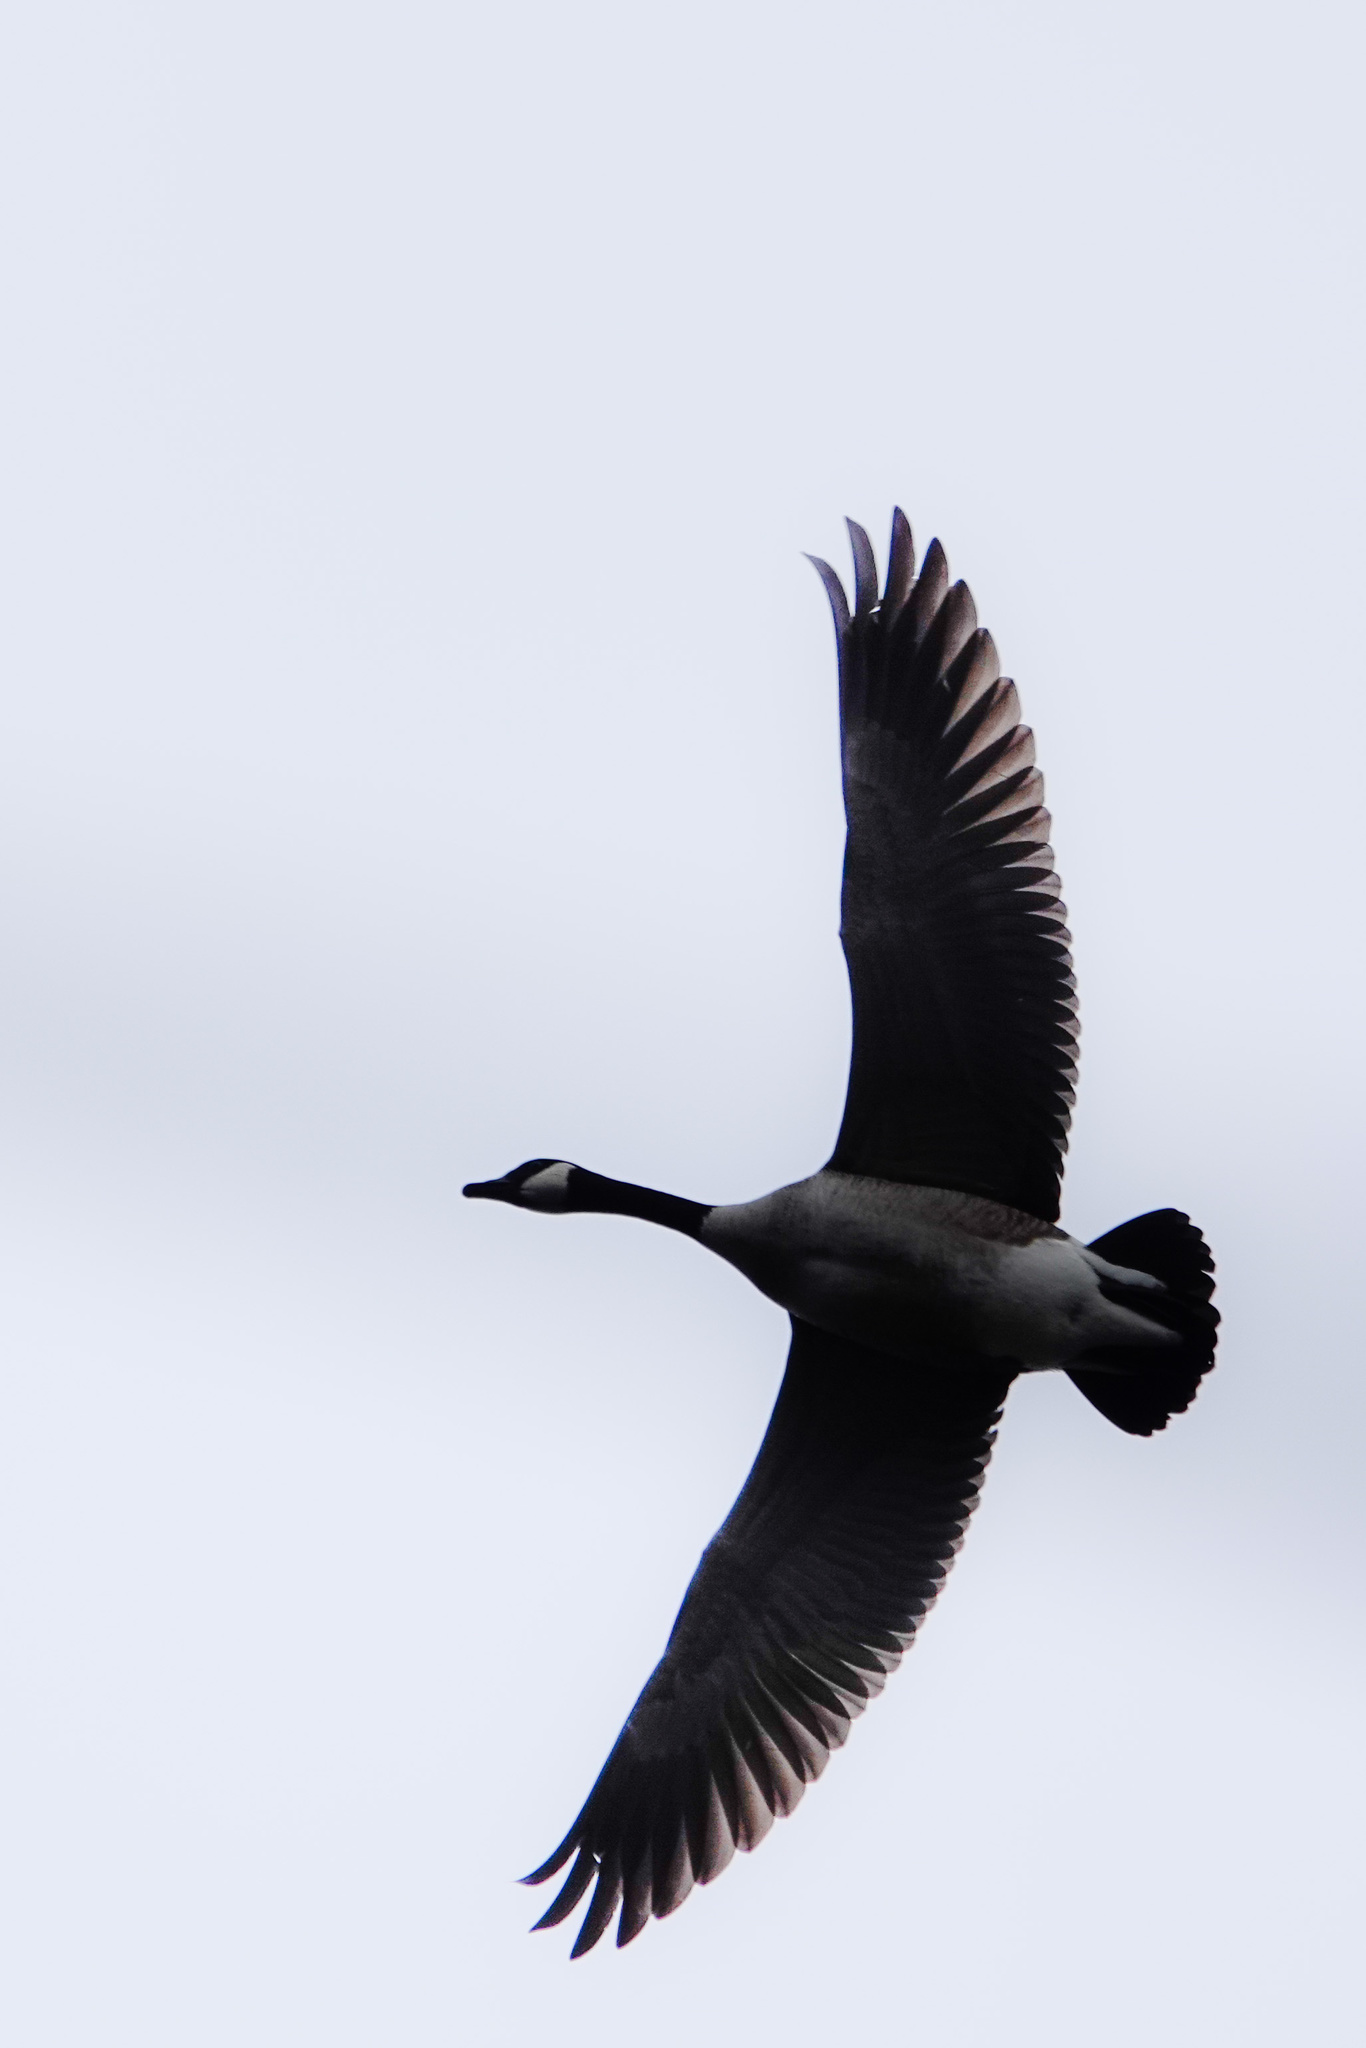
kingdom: Animalia
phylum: Chordata
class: Aves
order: Anseriformes
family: Anatidae
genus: Branta
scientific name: Branta canadensis
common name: Canada goose
